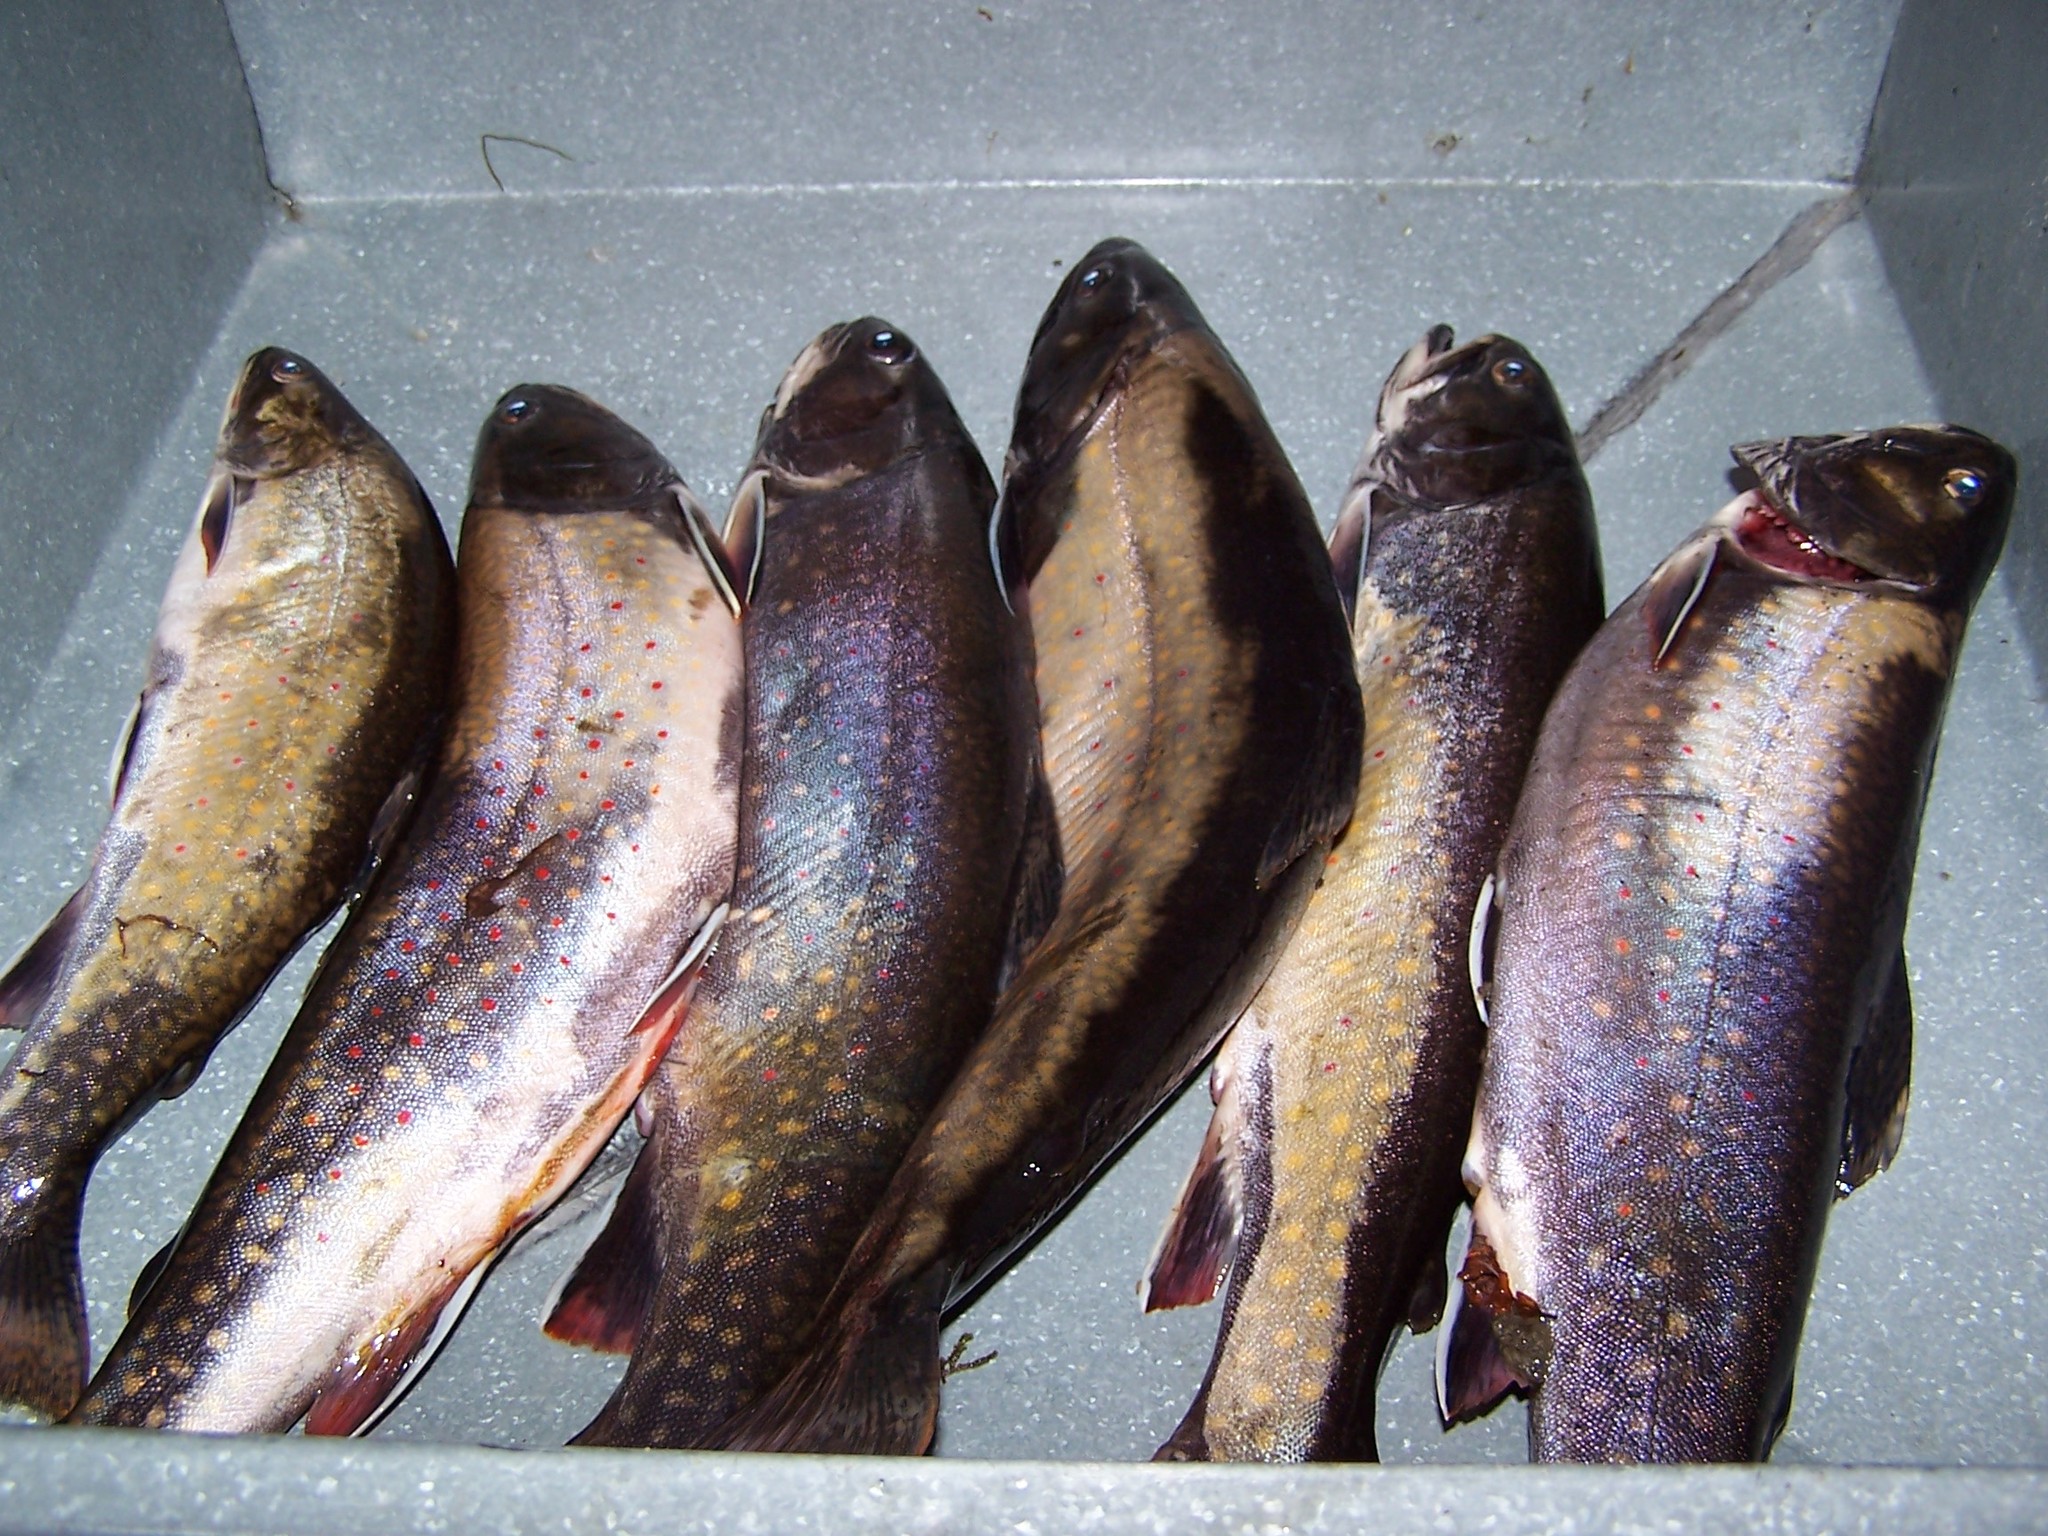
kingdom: Animalia
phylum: Chordata
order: Salmoniformes
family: Salmonidae
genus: Salvelinus
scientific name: Salvelinus fontinalis
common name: Brook trout
